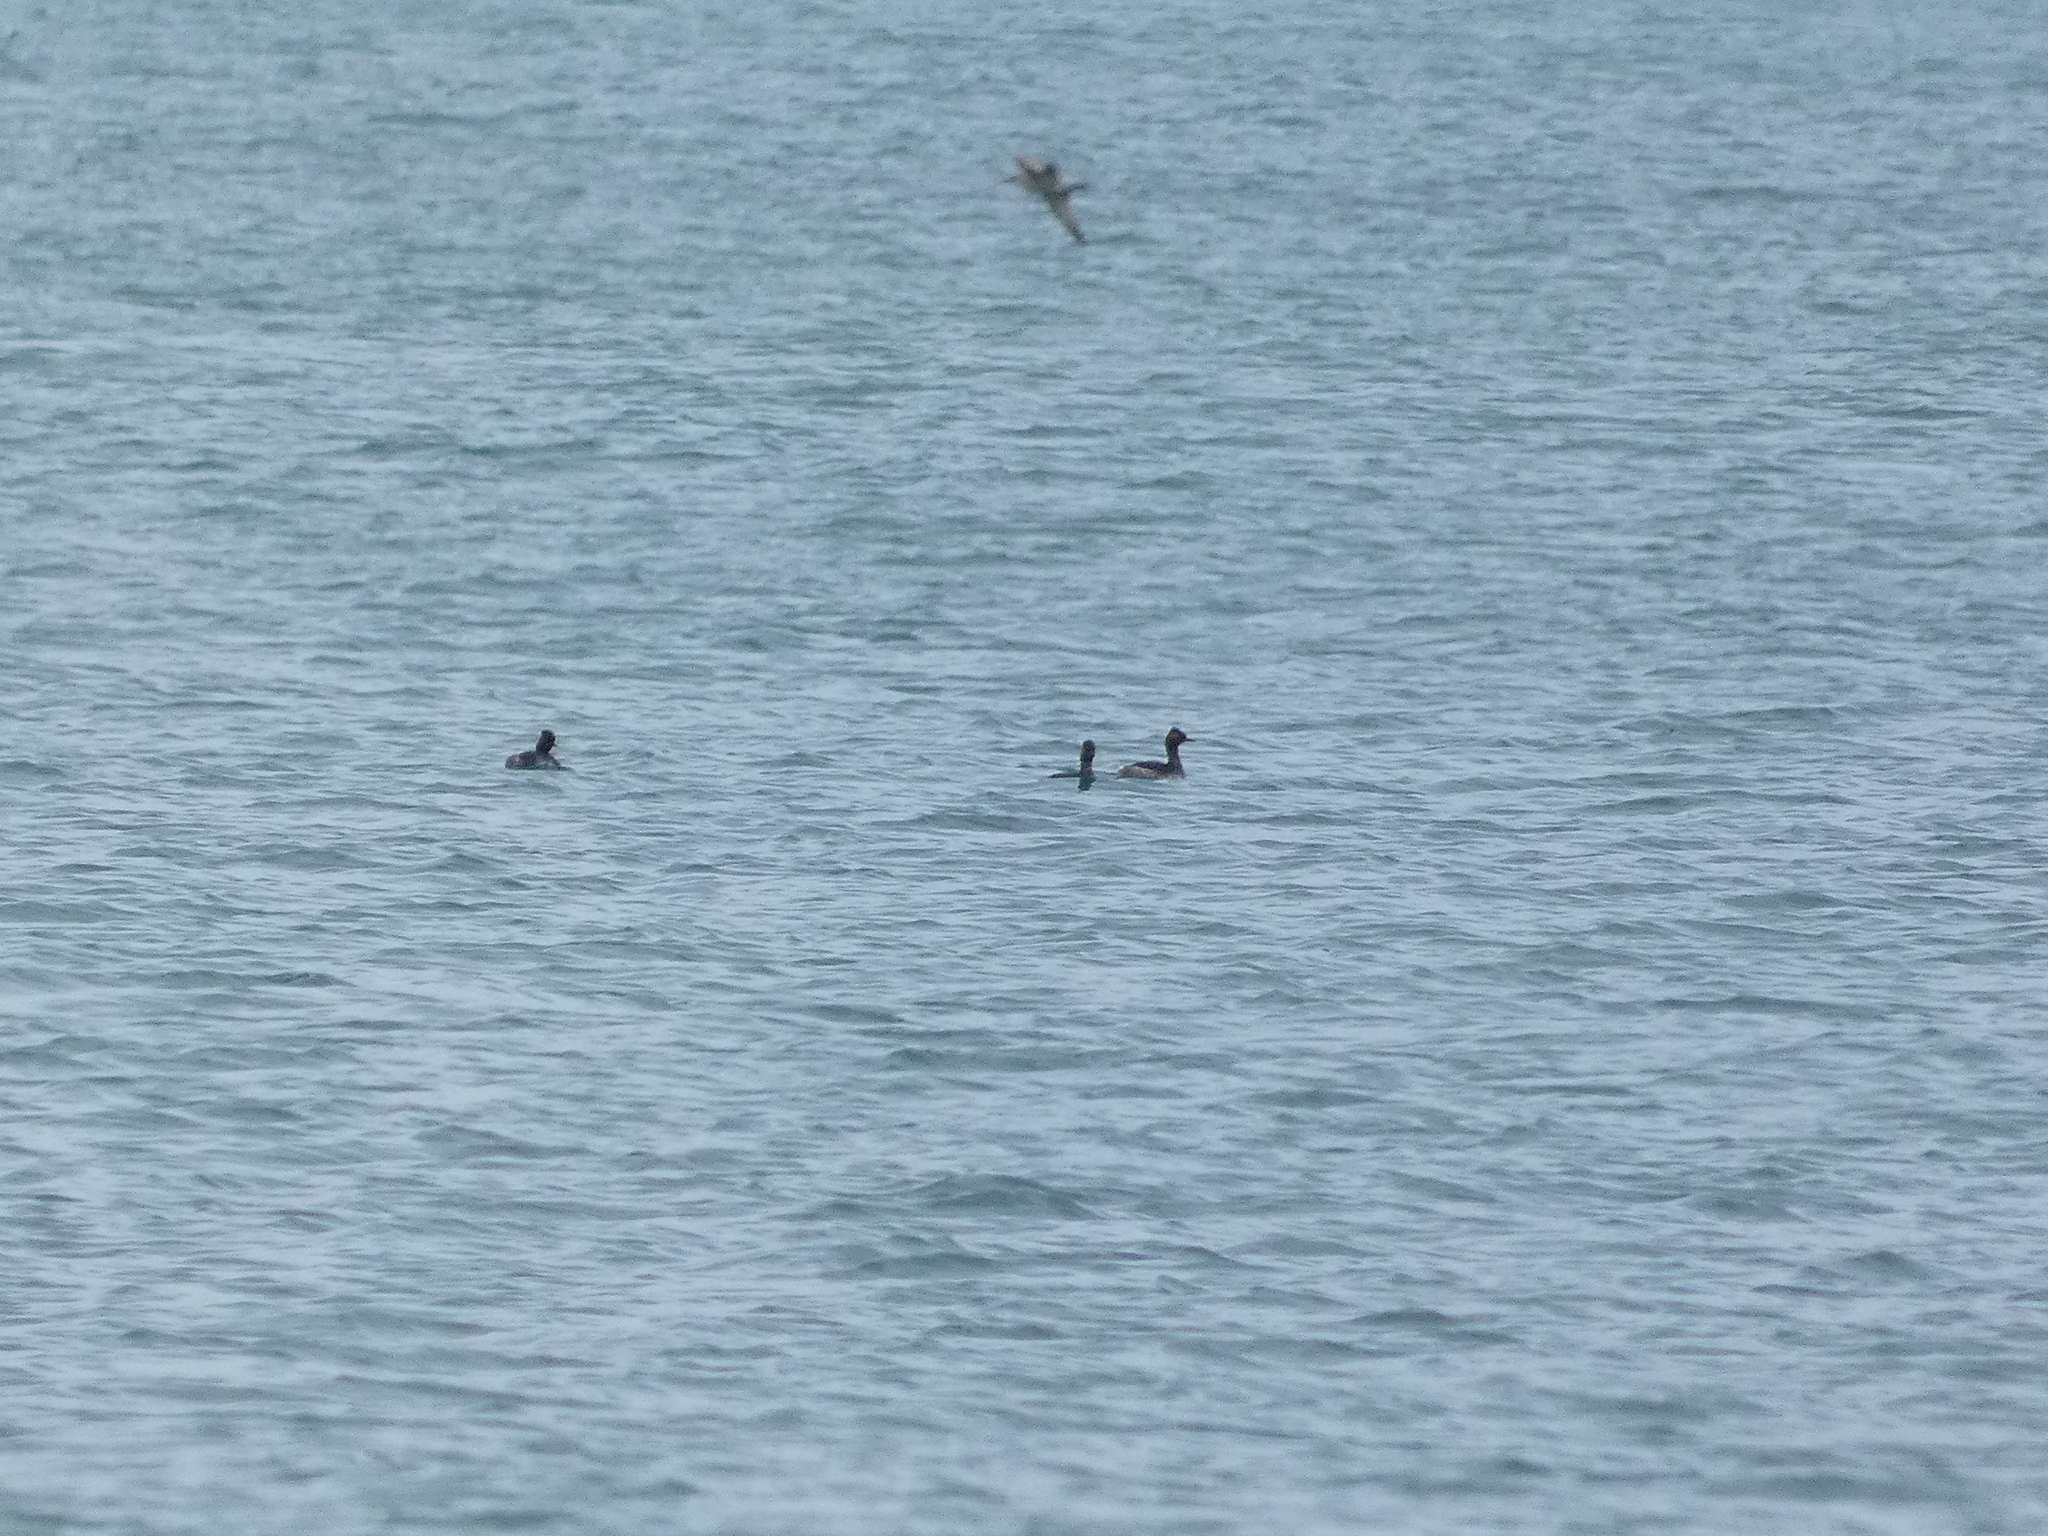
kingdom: Animalia
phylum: Chordata
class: Aves
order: Podicipediformes
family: Podicipedidae
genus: Podiceps
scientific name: Podiceps nigricollis
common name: Black-necked grebe
